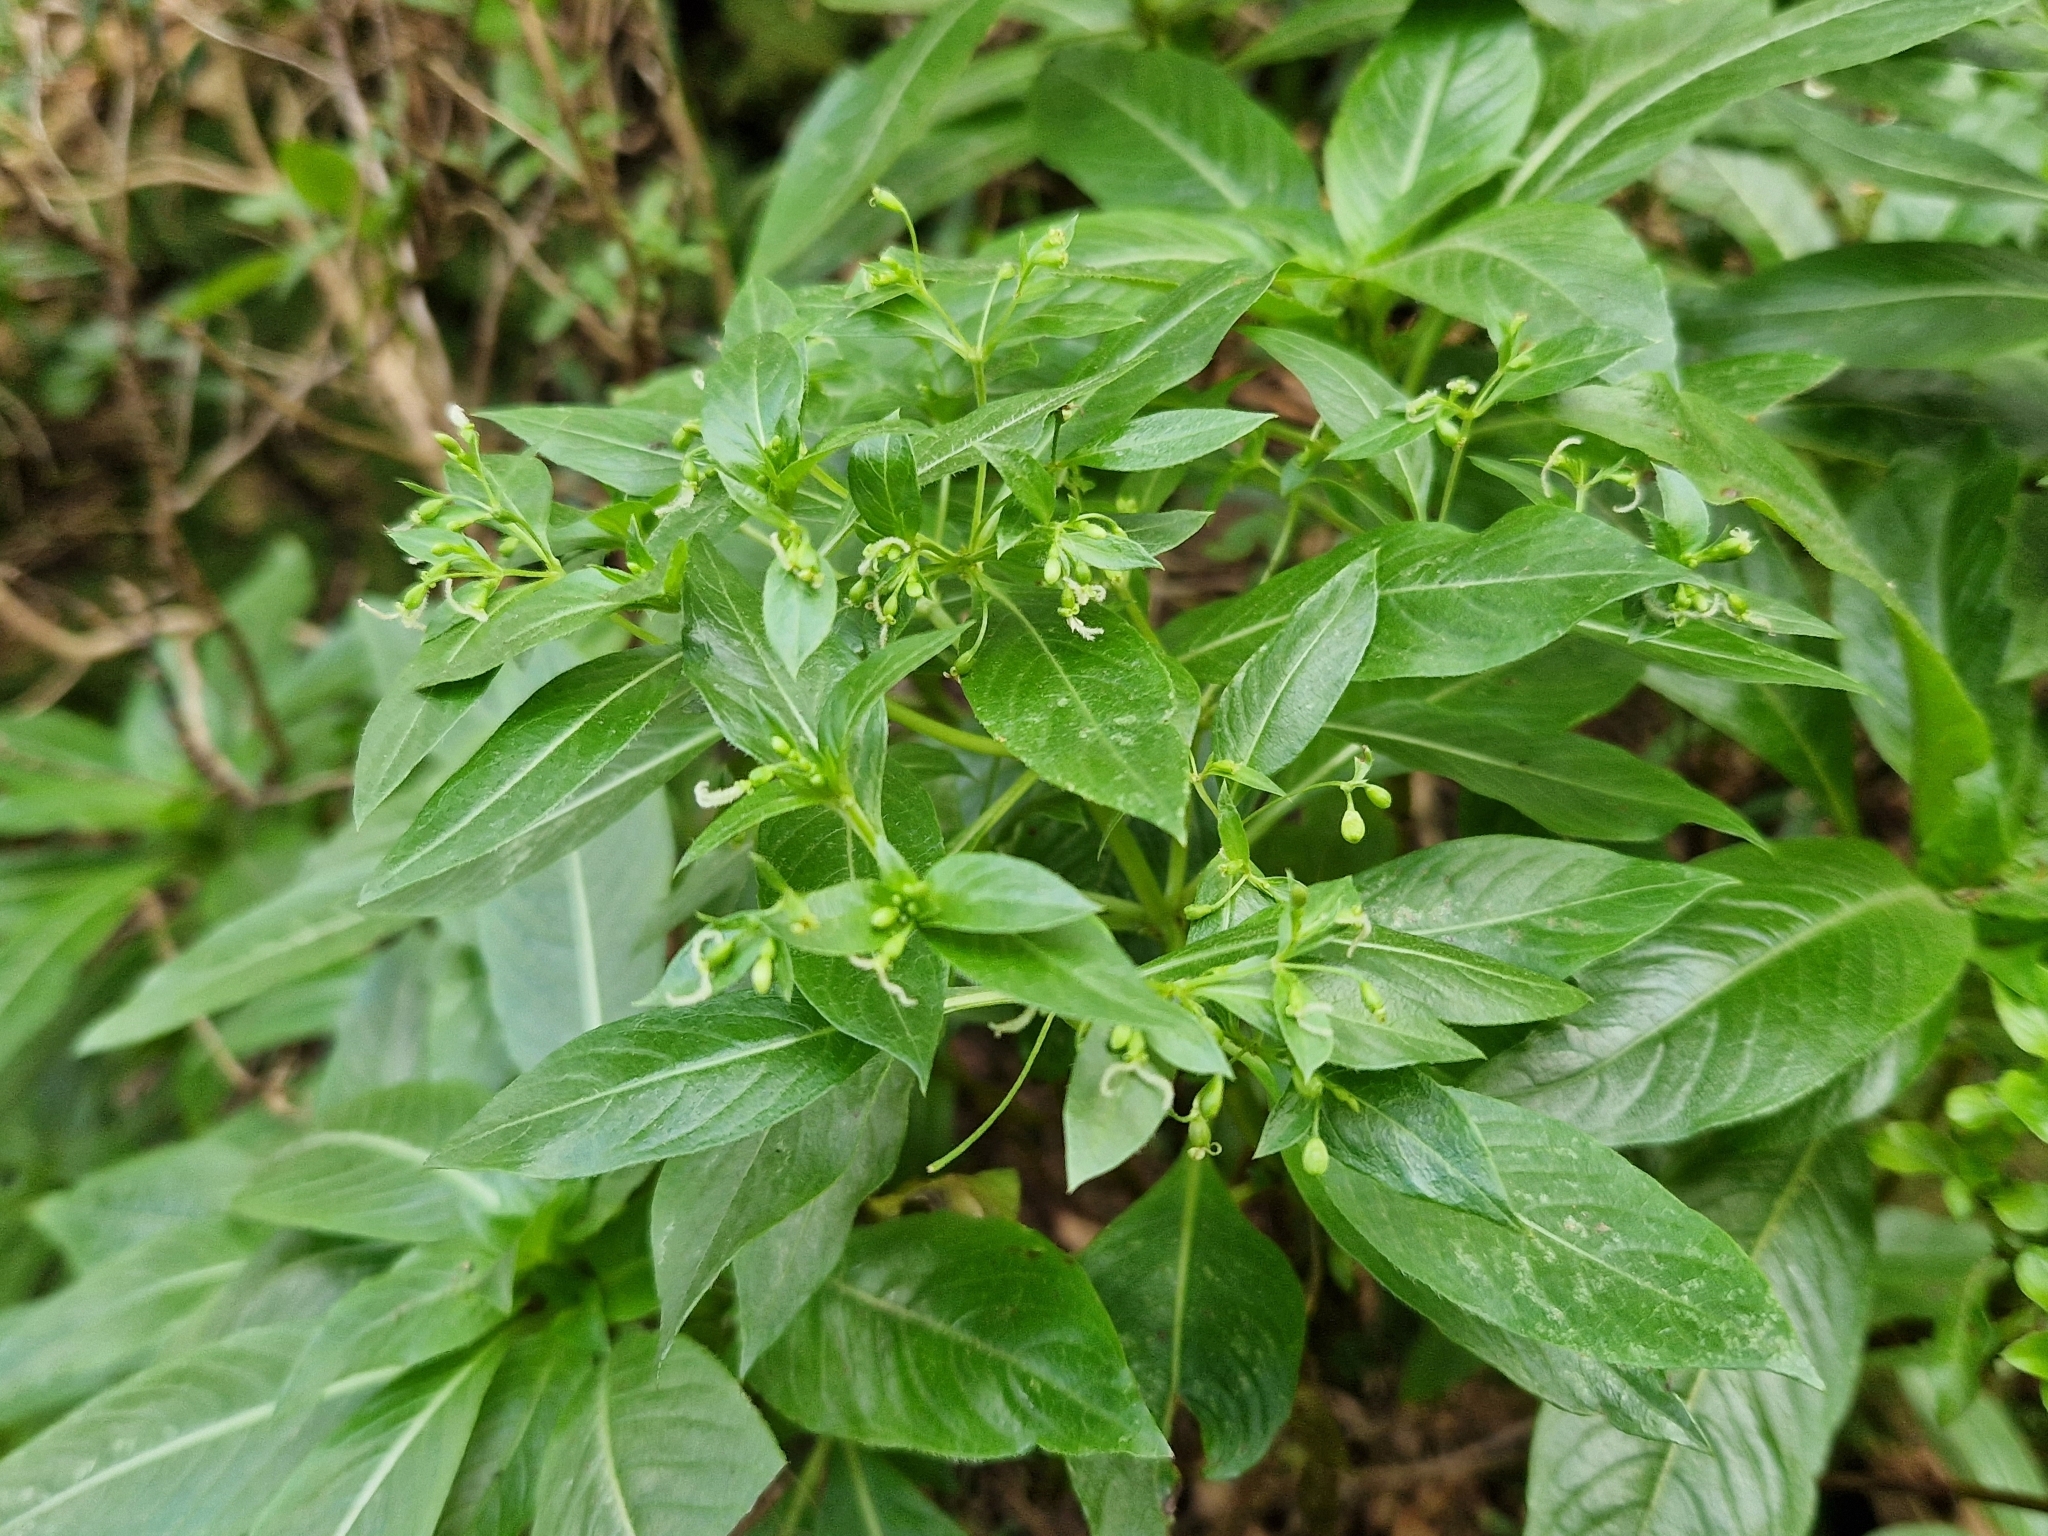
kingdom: Plantae
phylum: Tracheophyta
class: Magnoliopsida
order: Gentianales
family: Rubiaceae
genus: Phyllis
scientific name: Phyllis nobla
